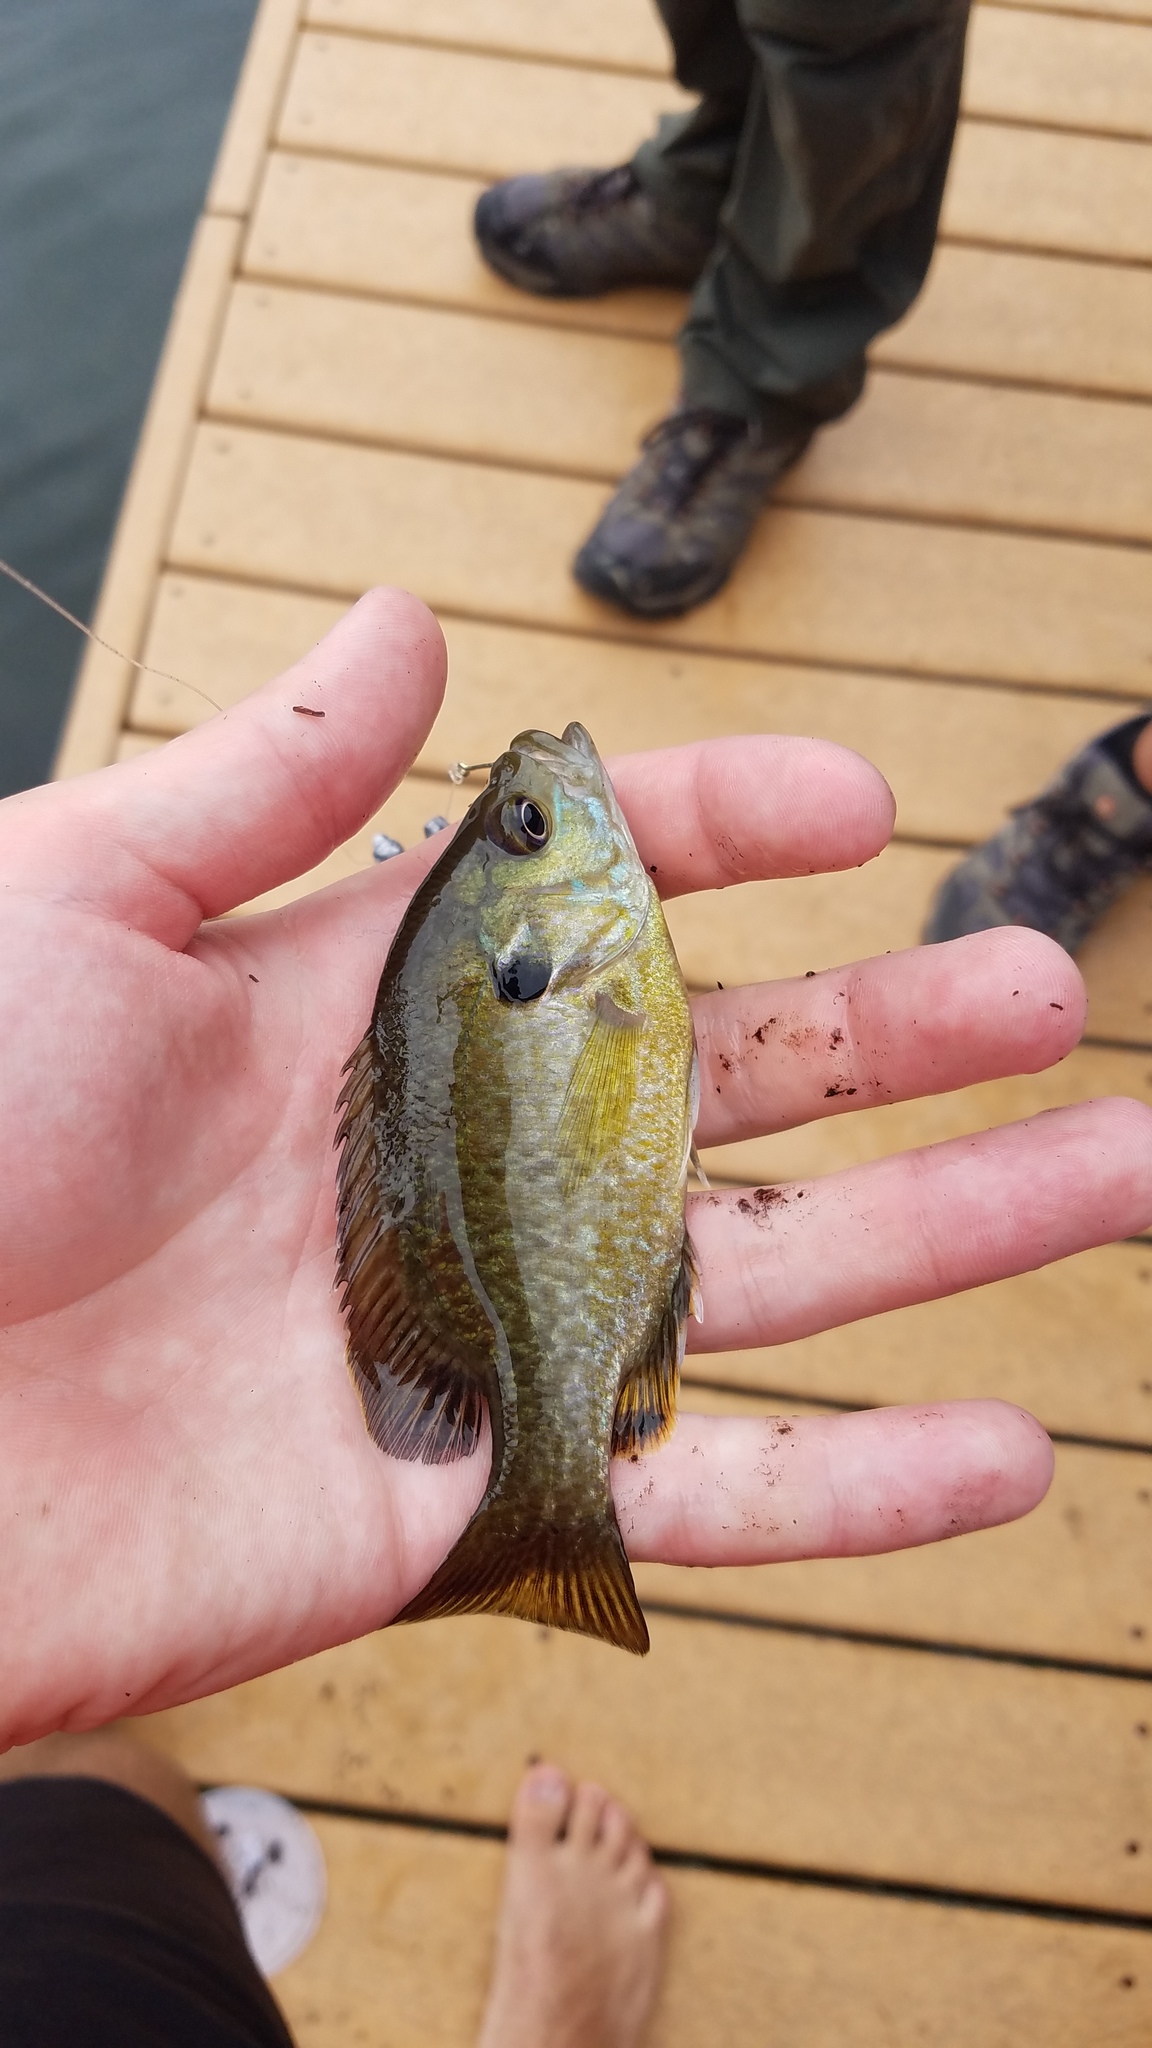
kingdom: Animalia
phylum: Chordata
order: Perciformes
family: Centrarchidae
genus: Lepomis
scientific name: Lepomis
